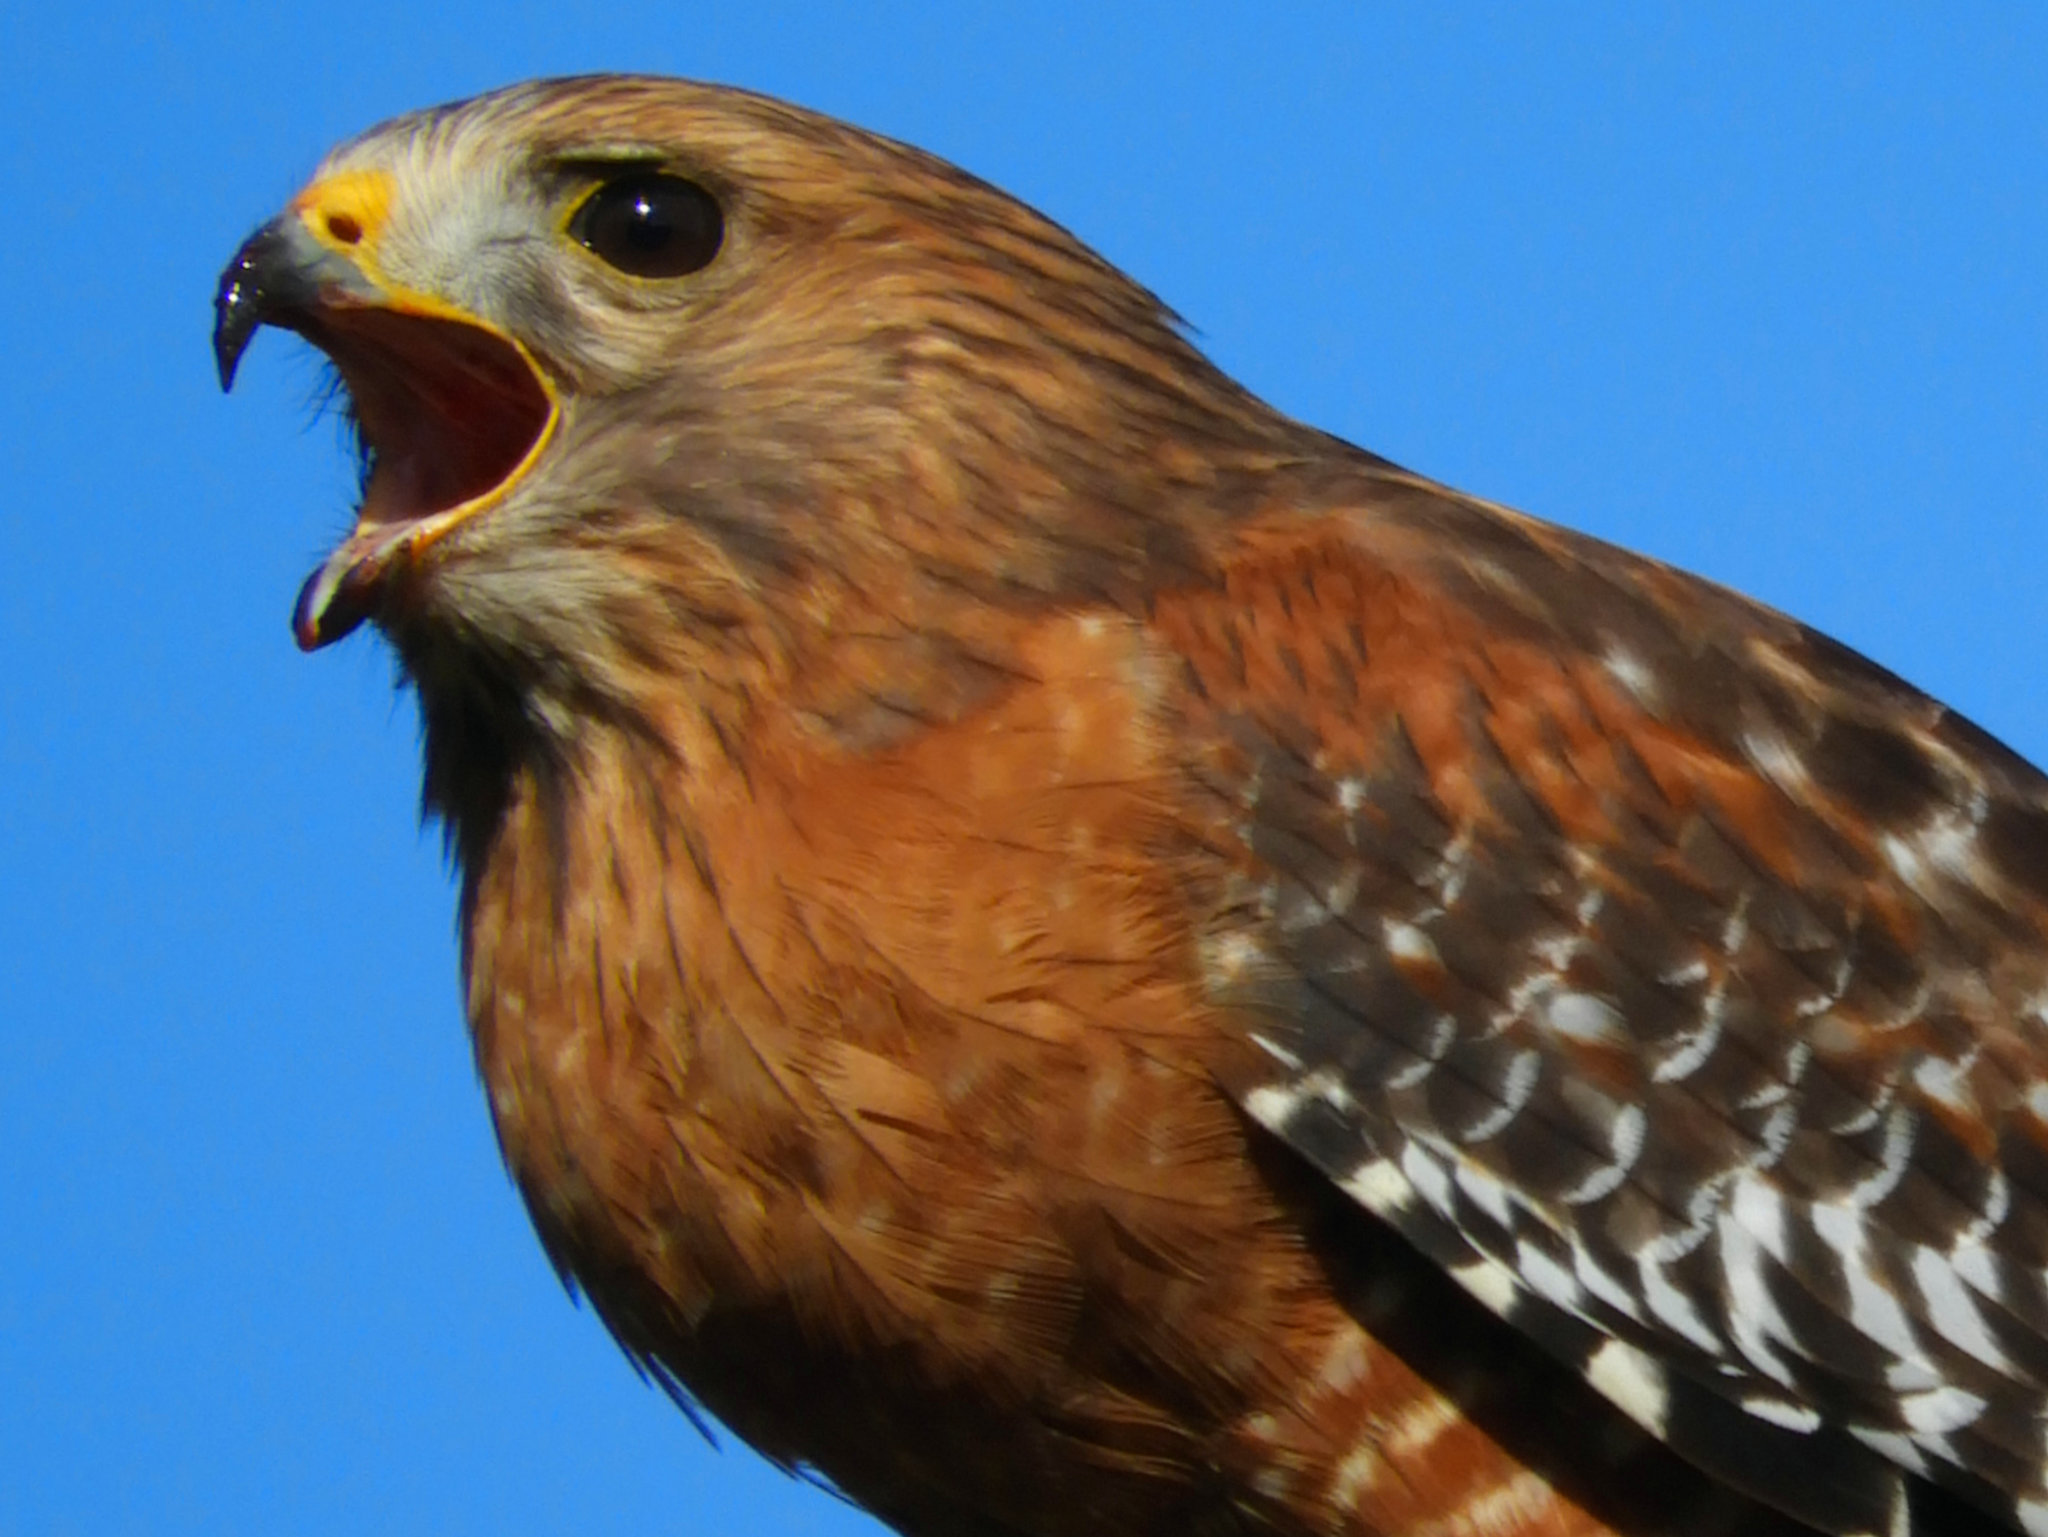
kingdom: Animalia
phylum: Chordata
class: Aves
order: Accipitriformes
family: Accipitridae
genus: Buteo
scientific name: Buteo lineatus
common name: Red-shouldered hawk
